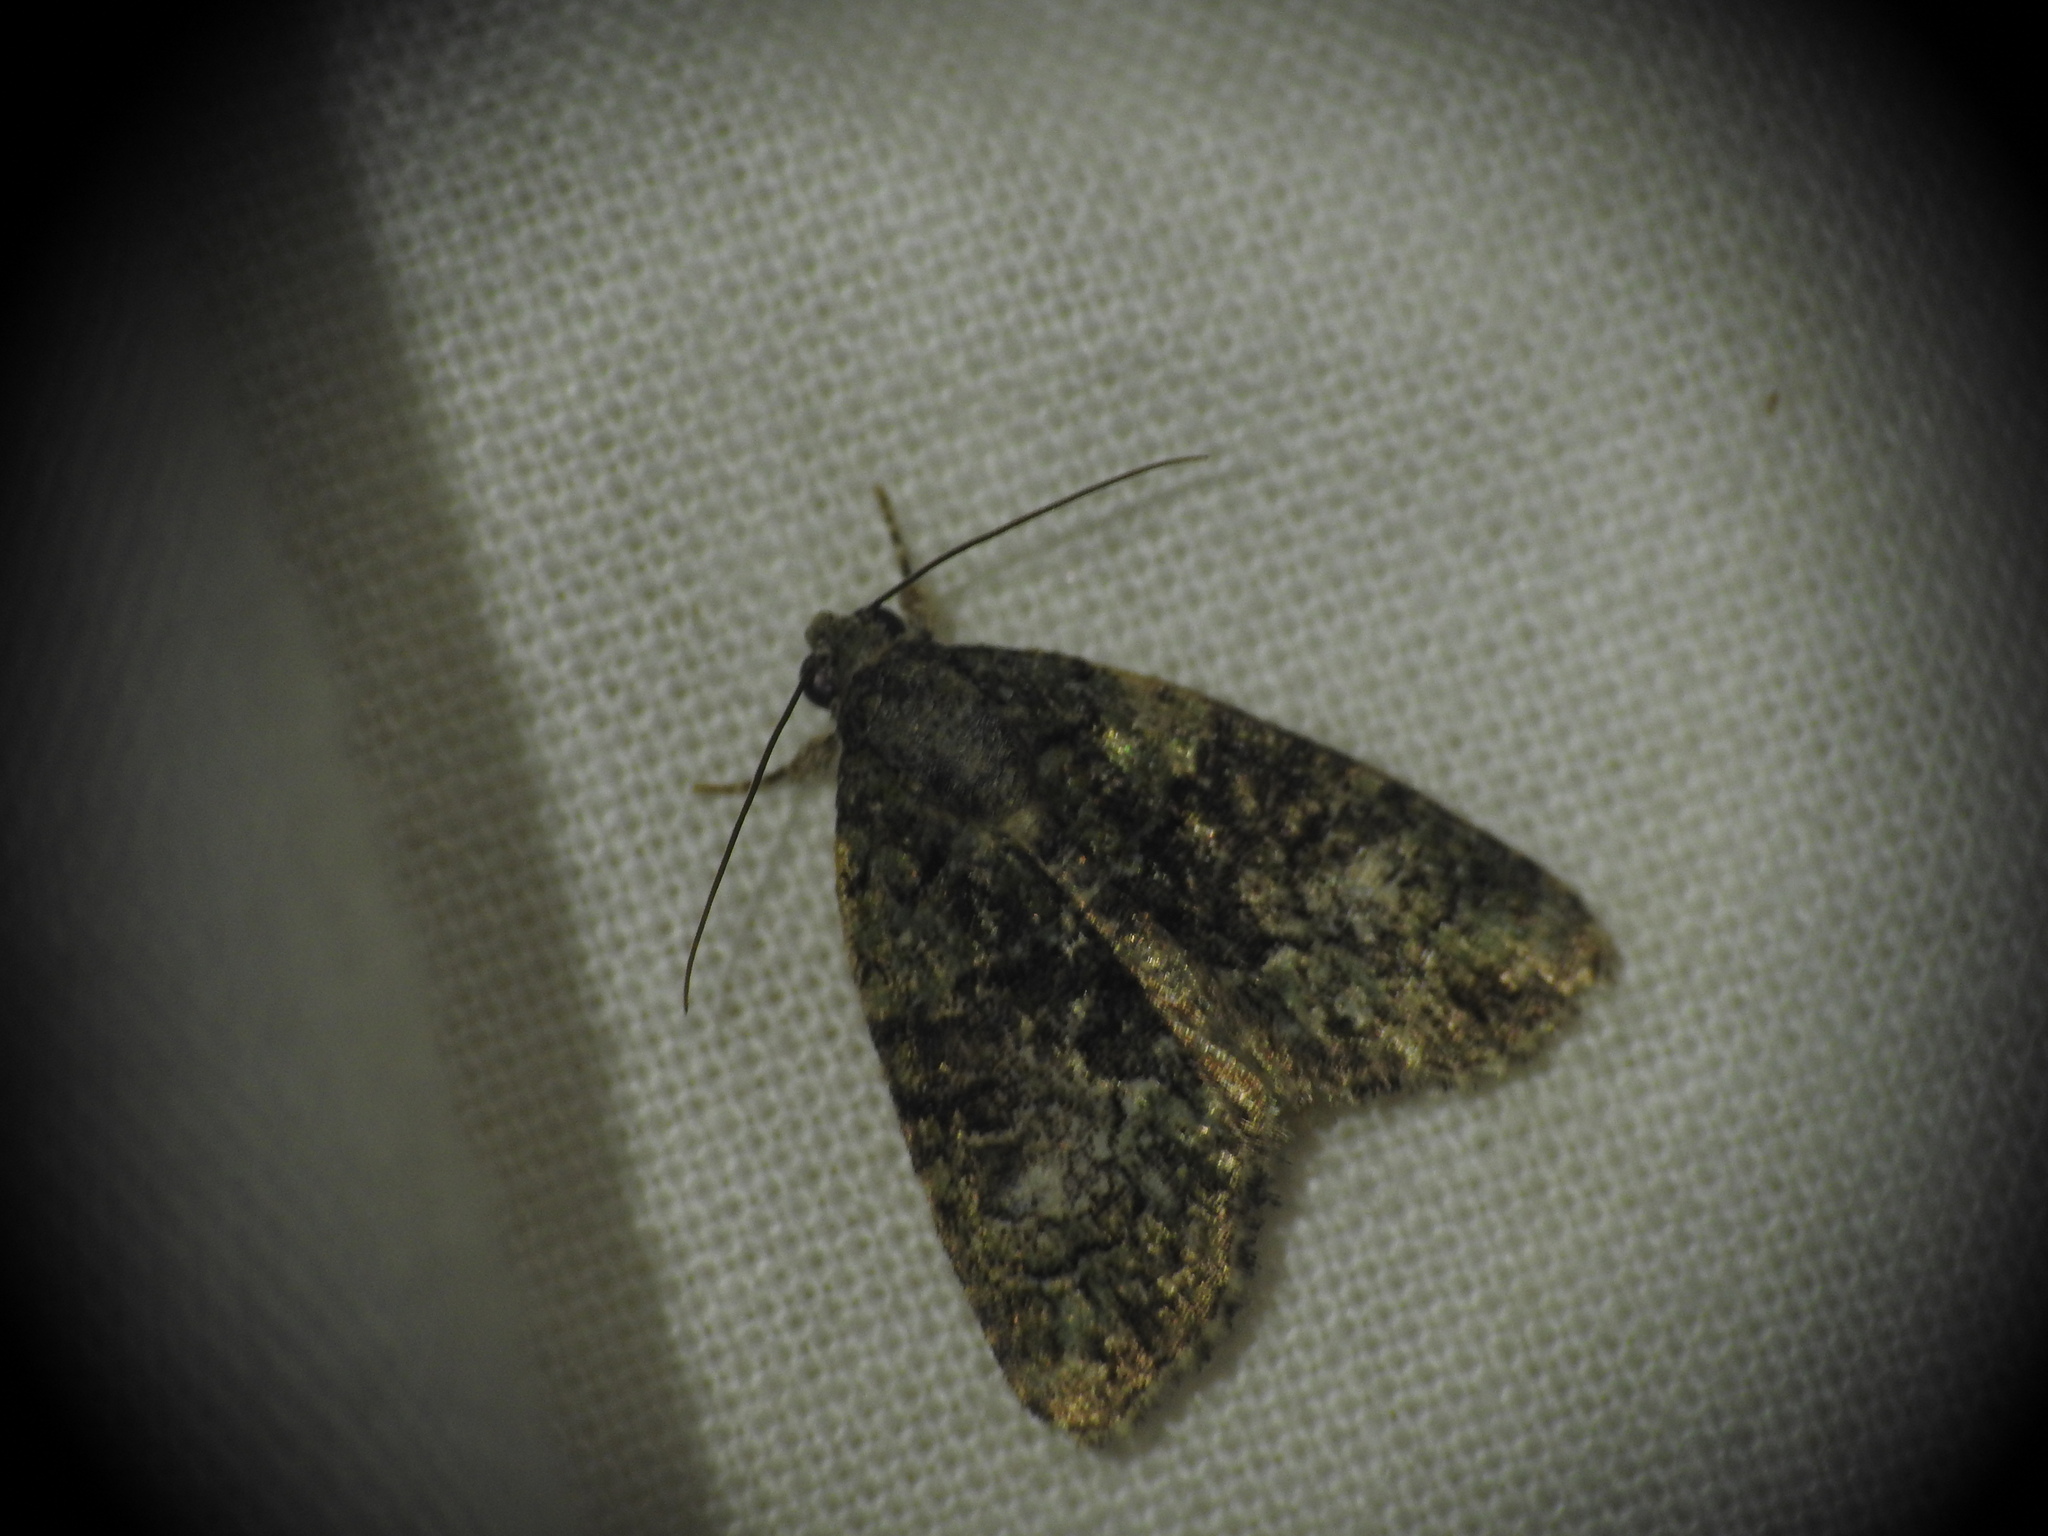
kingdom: Animalia
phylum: Arthropoda
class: Insecta
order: Lepidoptera
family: Noctuidae
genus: Cryphia
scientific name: Cryphia algae
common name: Tree-lichen beauty
